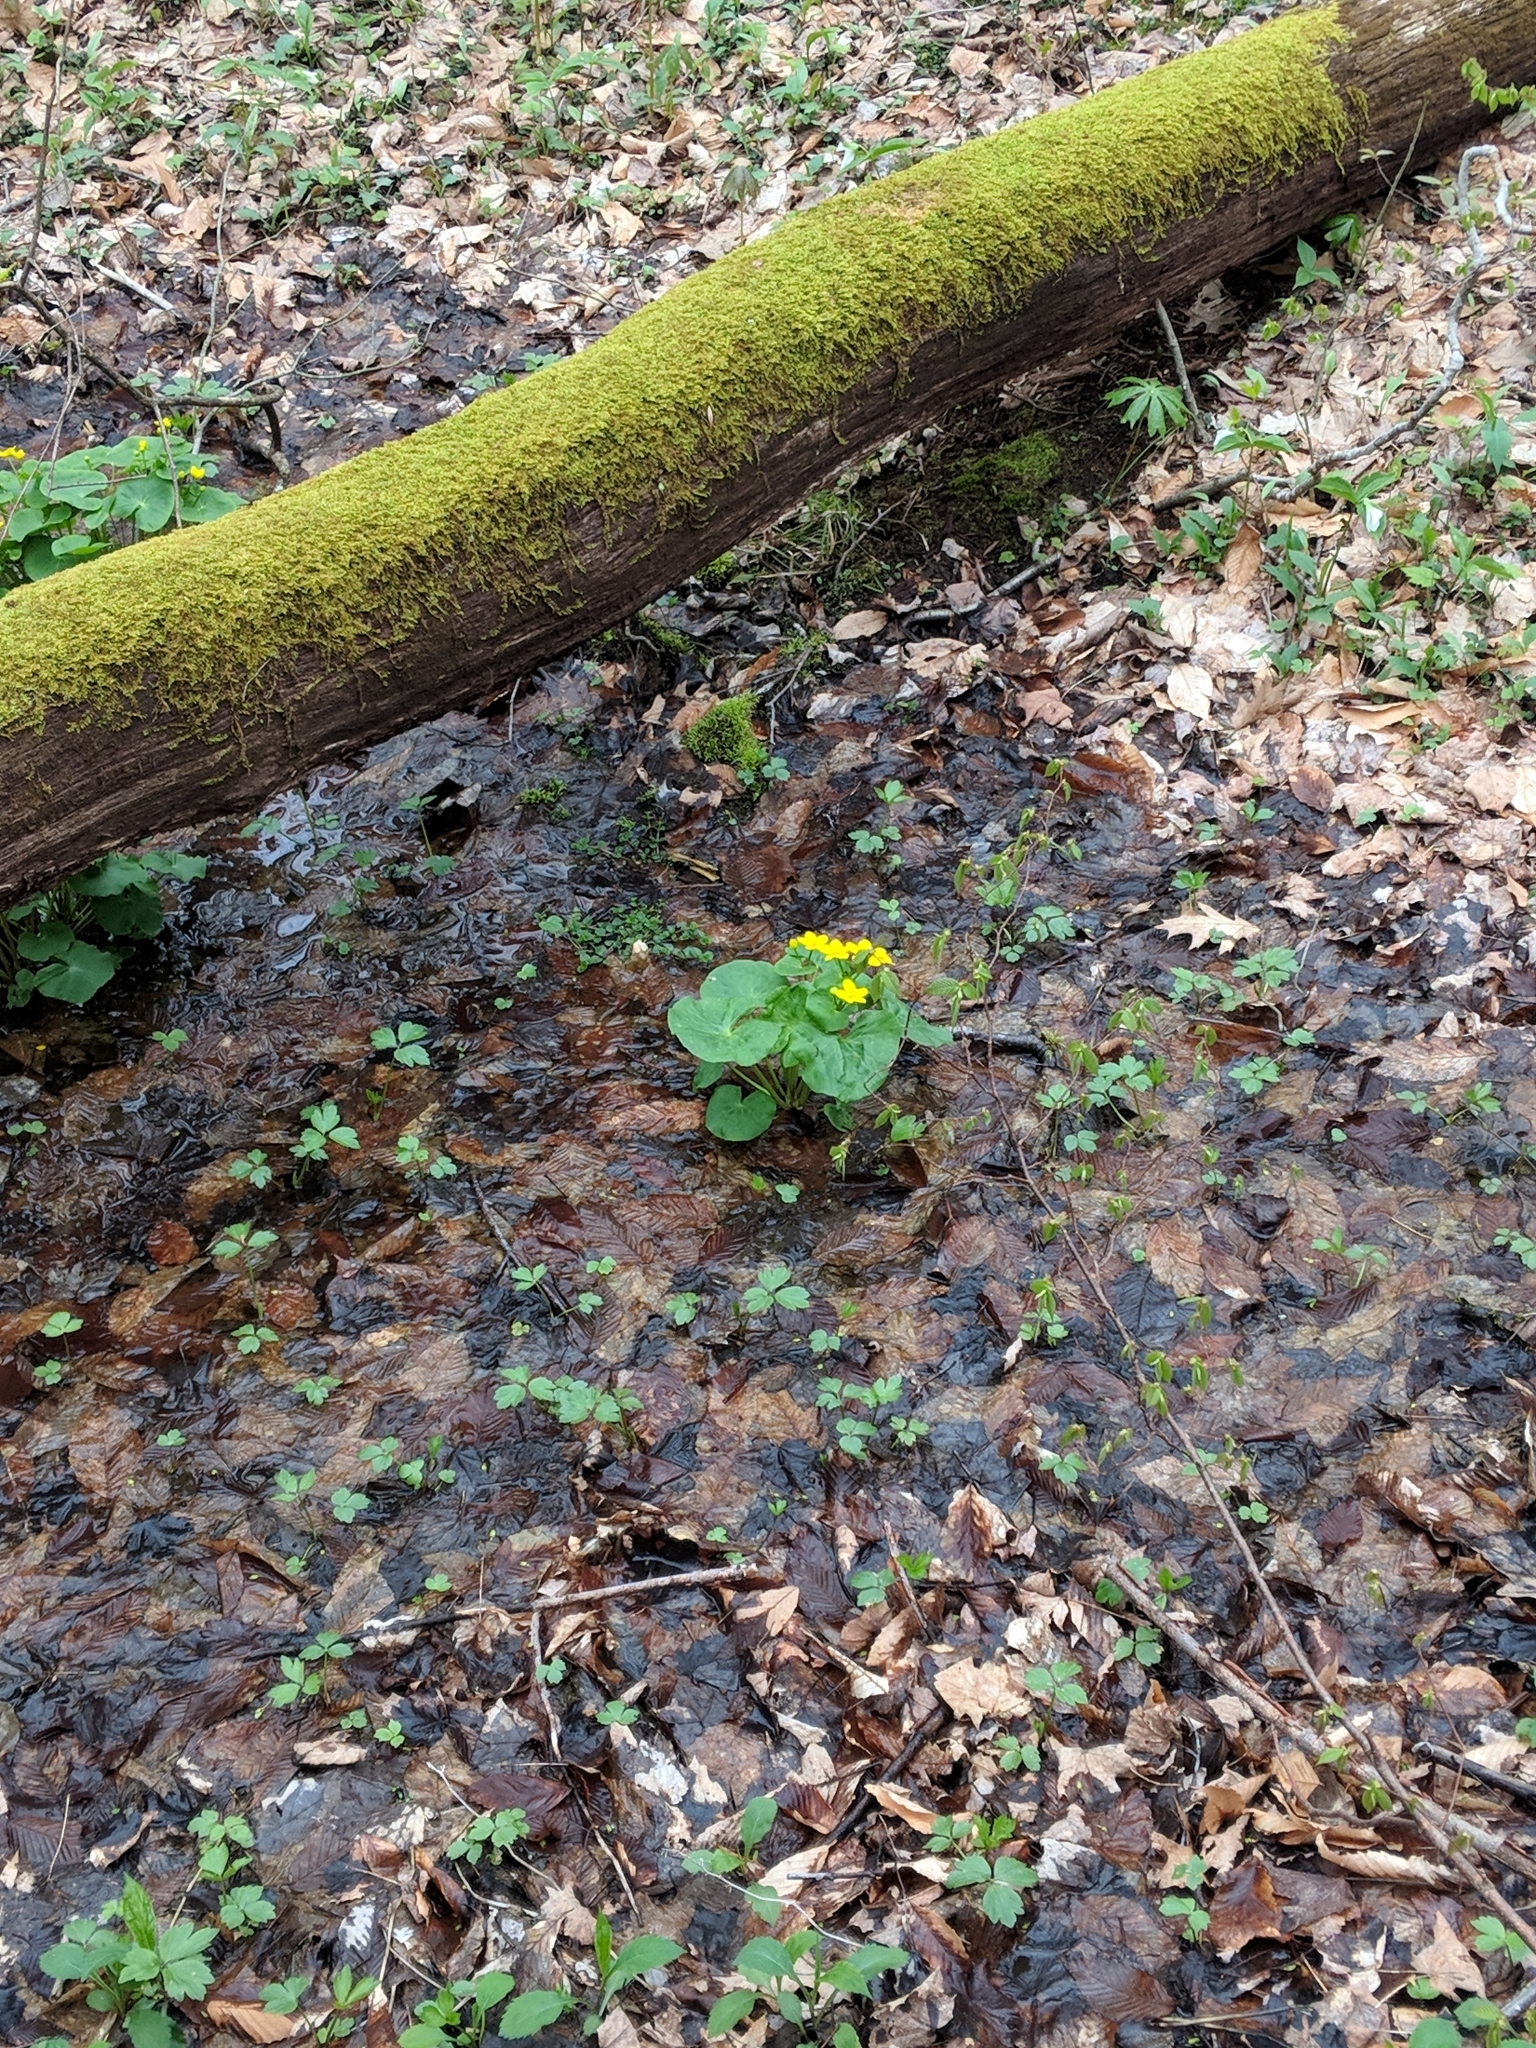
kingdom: Plantae
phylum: Tracheophyta
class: Magnoliopsida
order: Ranunculales
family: Ranunculaceae
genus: Caltha
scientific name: Caltha palustris
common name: Marsh marigold
